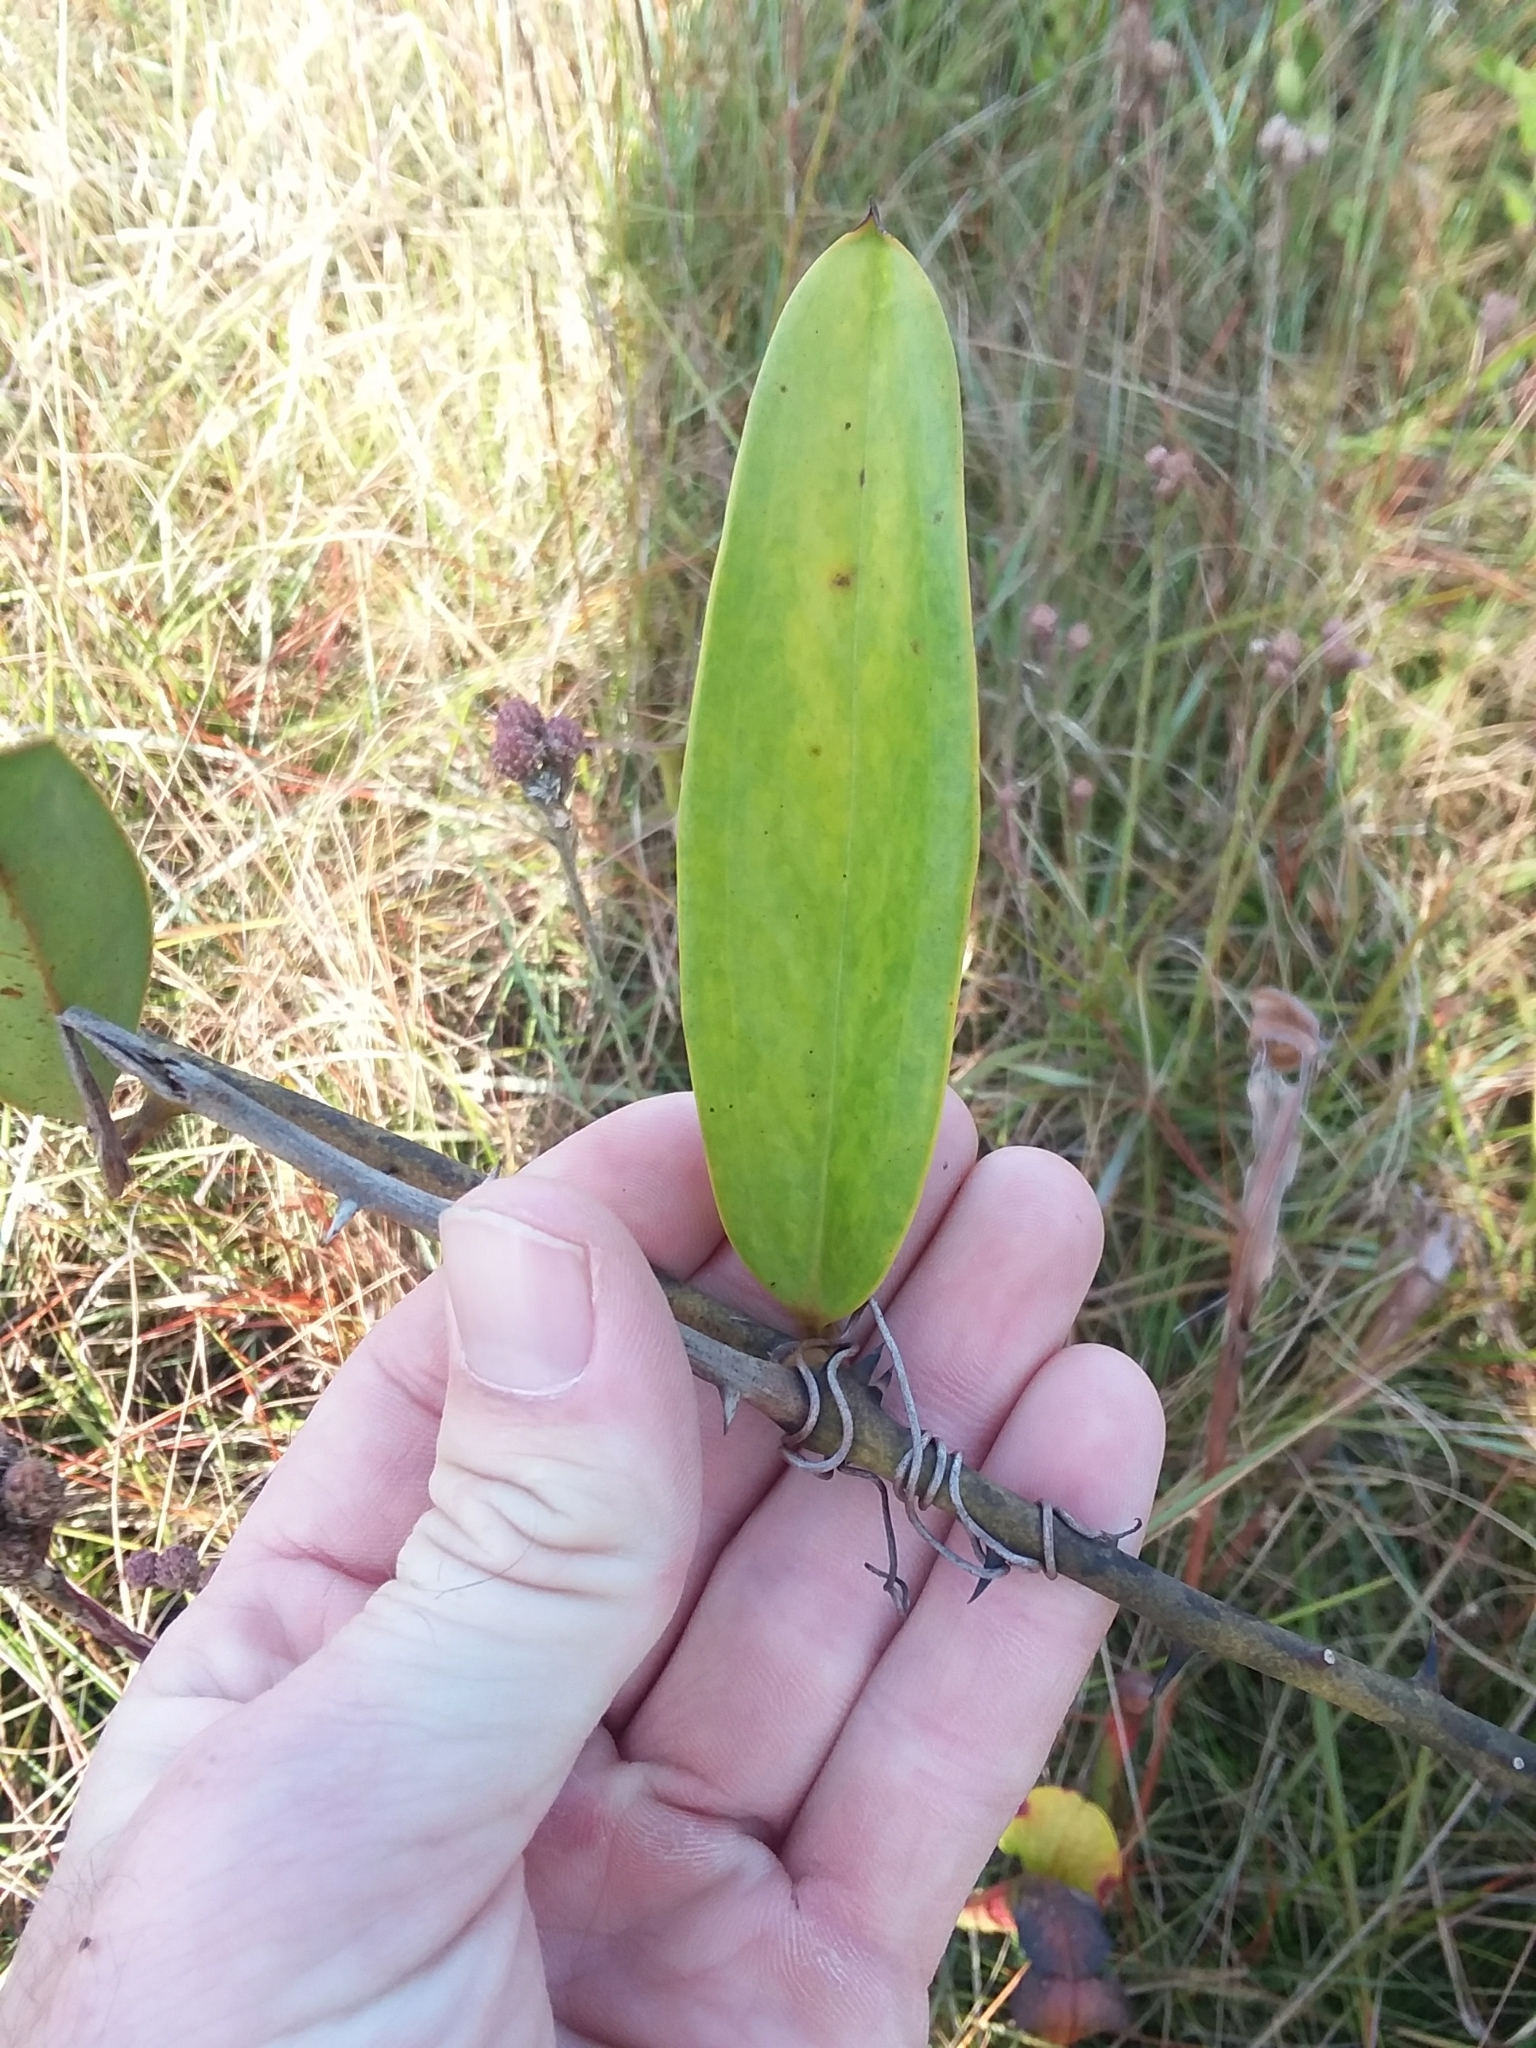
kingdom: Plantae
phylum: Tracheophyta
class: Liliopsida
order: Liliales
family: Smilacaceae
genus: Smilax
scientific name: Smilax laurifolia
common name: Bamboovine
